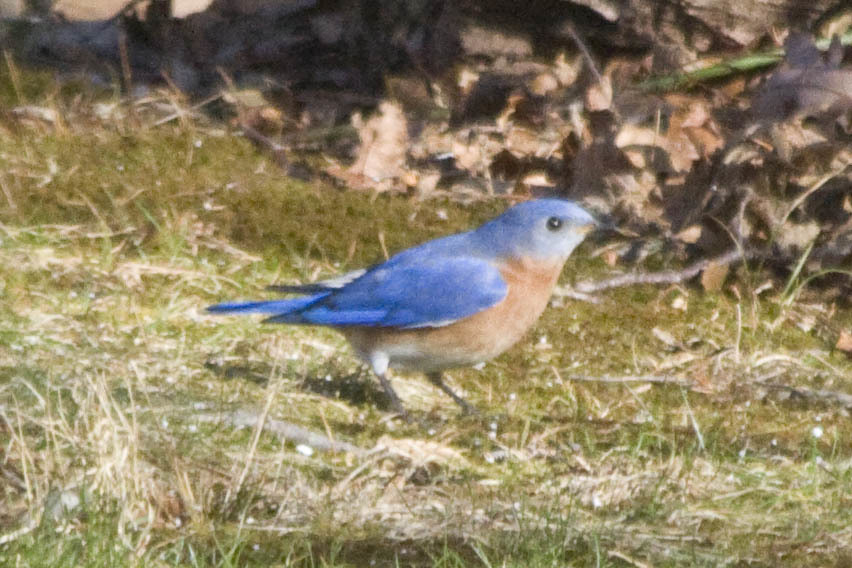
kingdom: Animalia
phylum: Chordata
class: Aves
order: Passeriformes
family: Turdidae
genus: Sialia
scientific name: Sialia sialis
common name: Eastern bluebird
